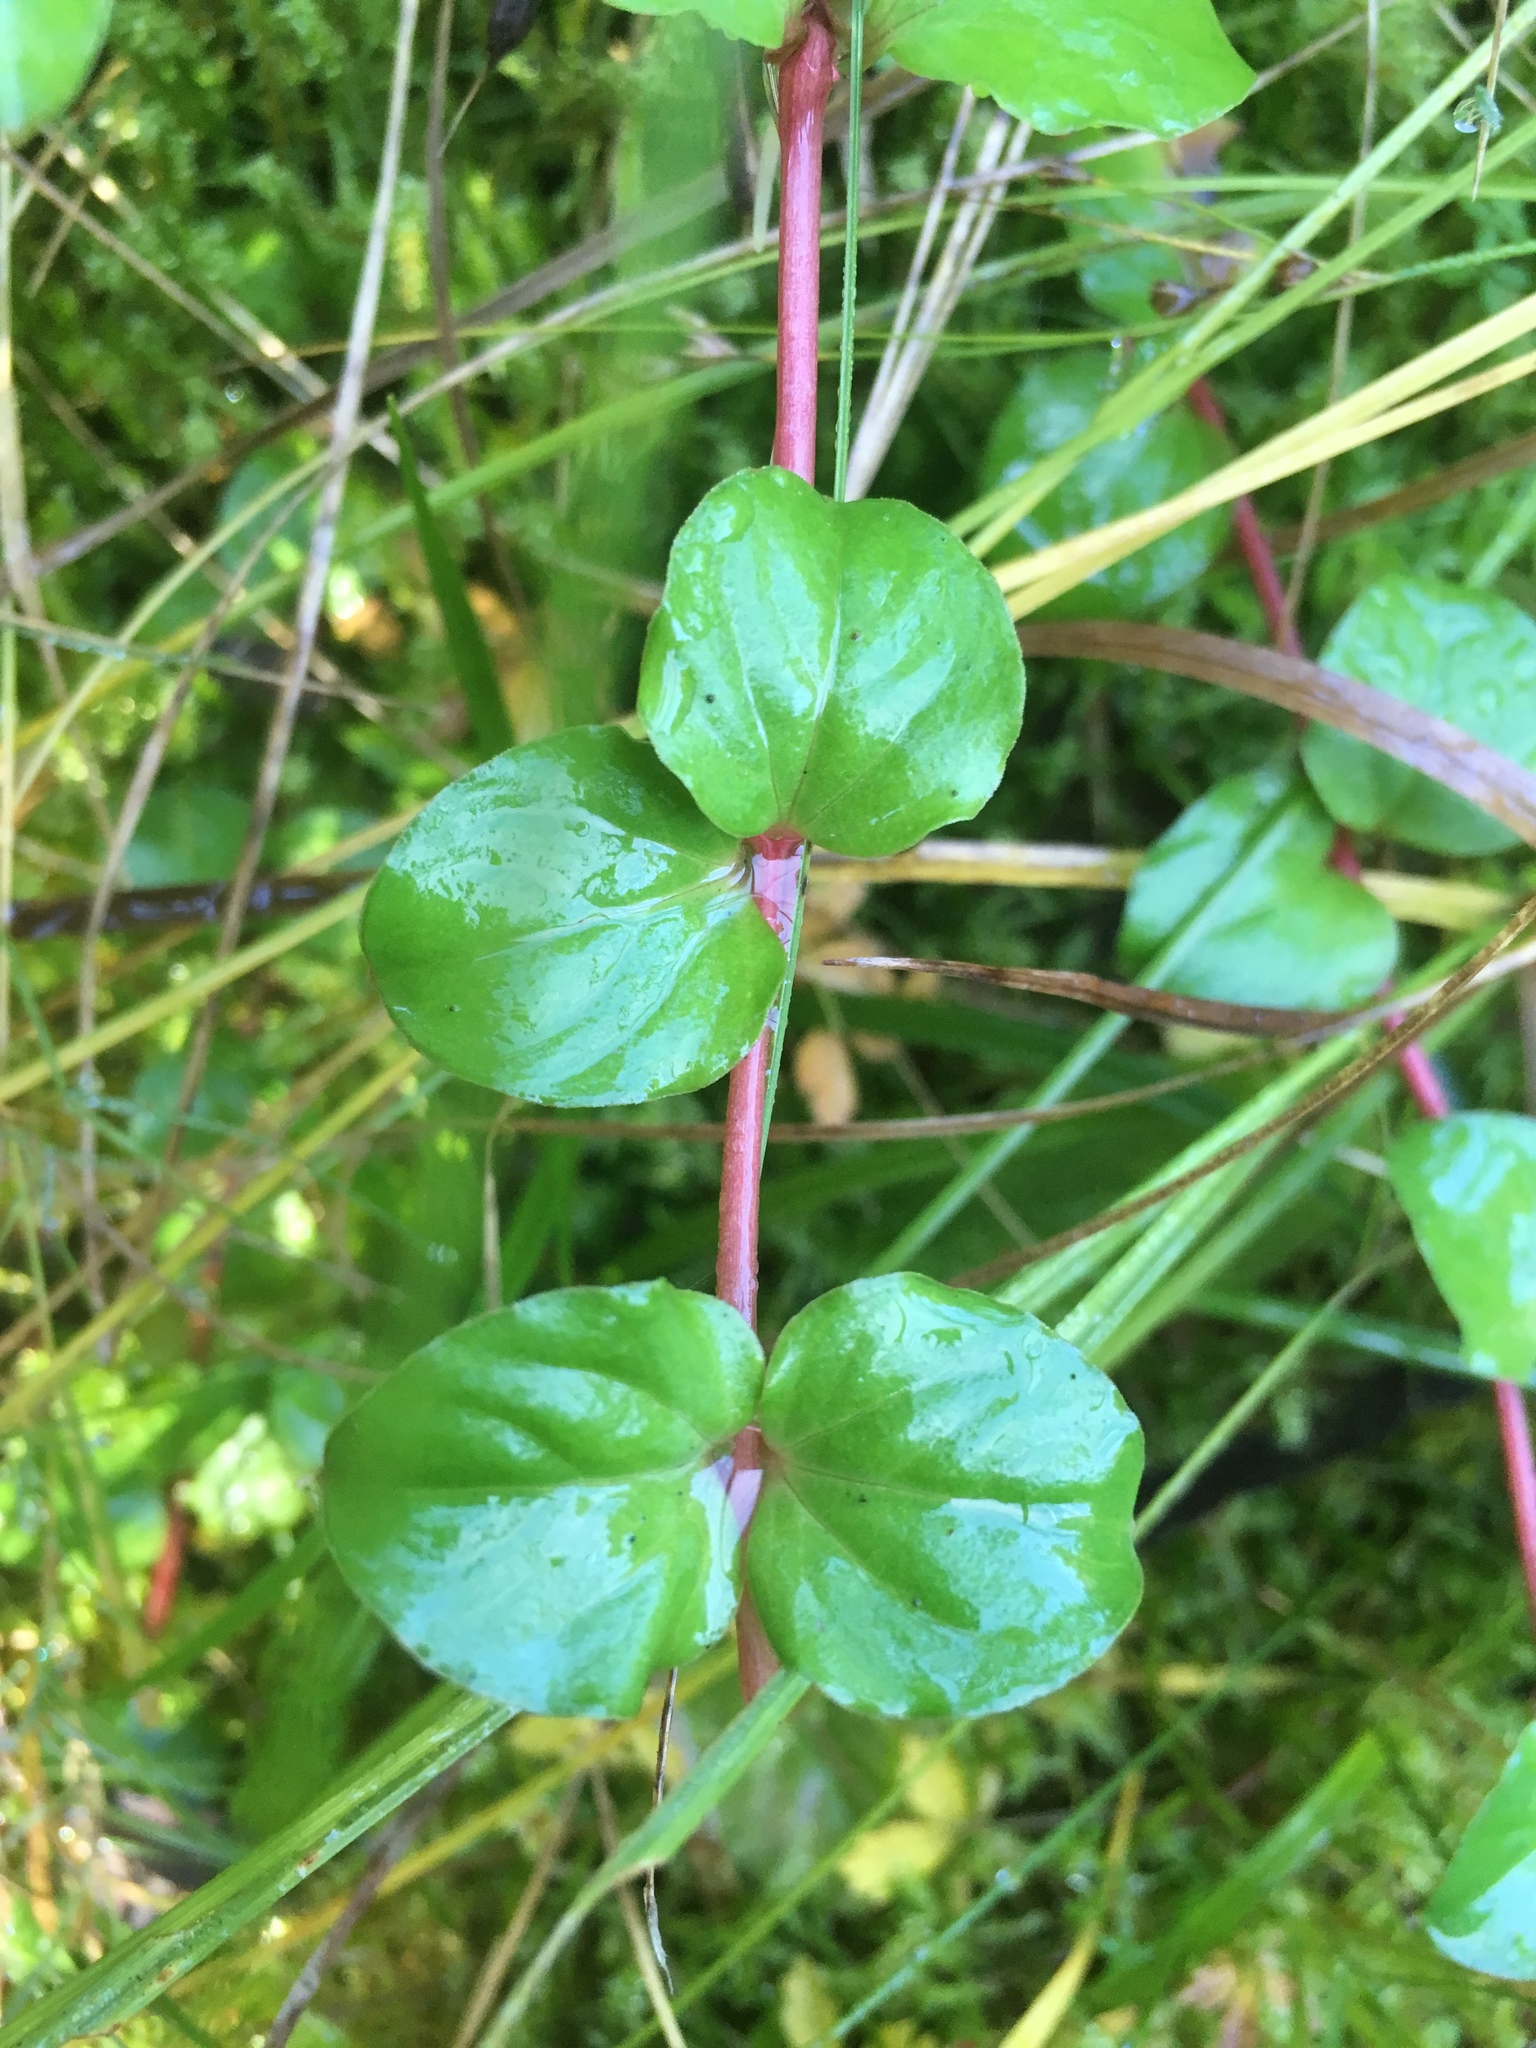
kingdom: Plantae
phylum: Tracheophyta
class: Magnoliopsida
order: Ericales
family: Primulaceae
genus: Lysimachia
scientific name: Lysimachia nummularia
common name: Moneywort
